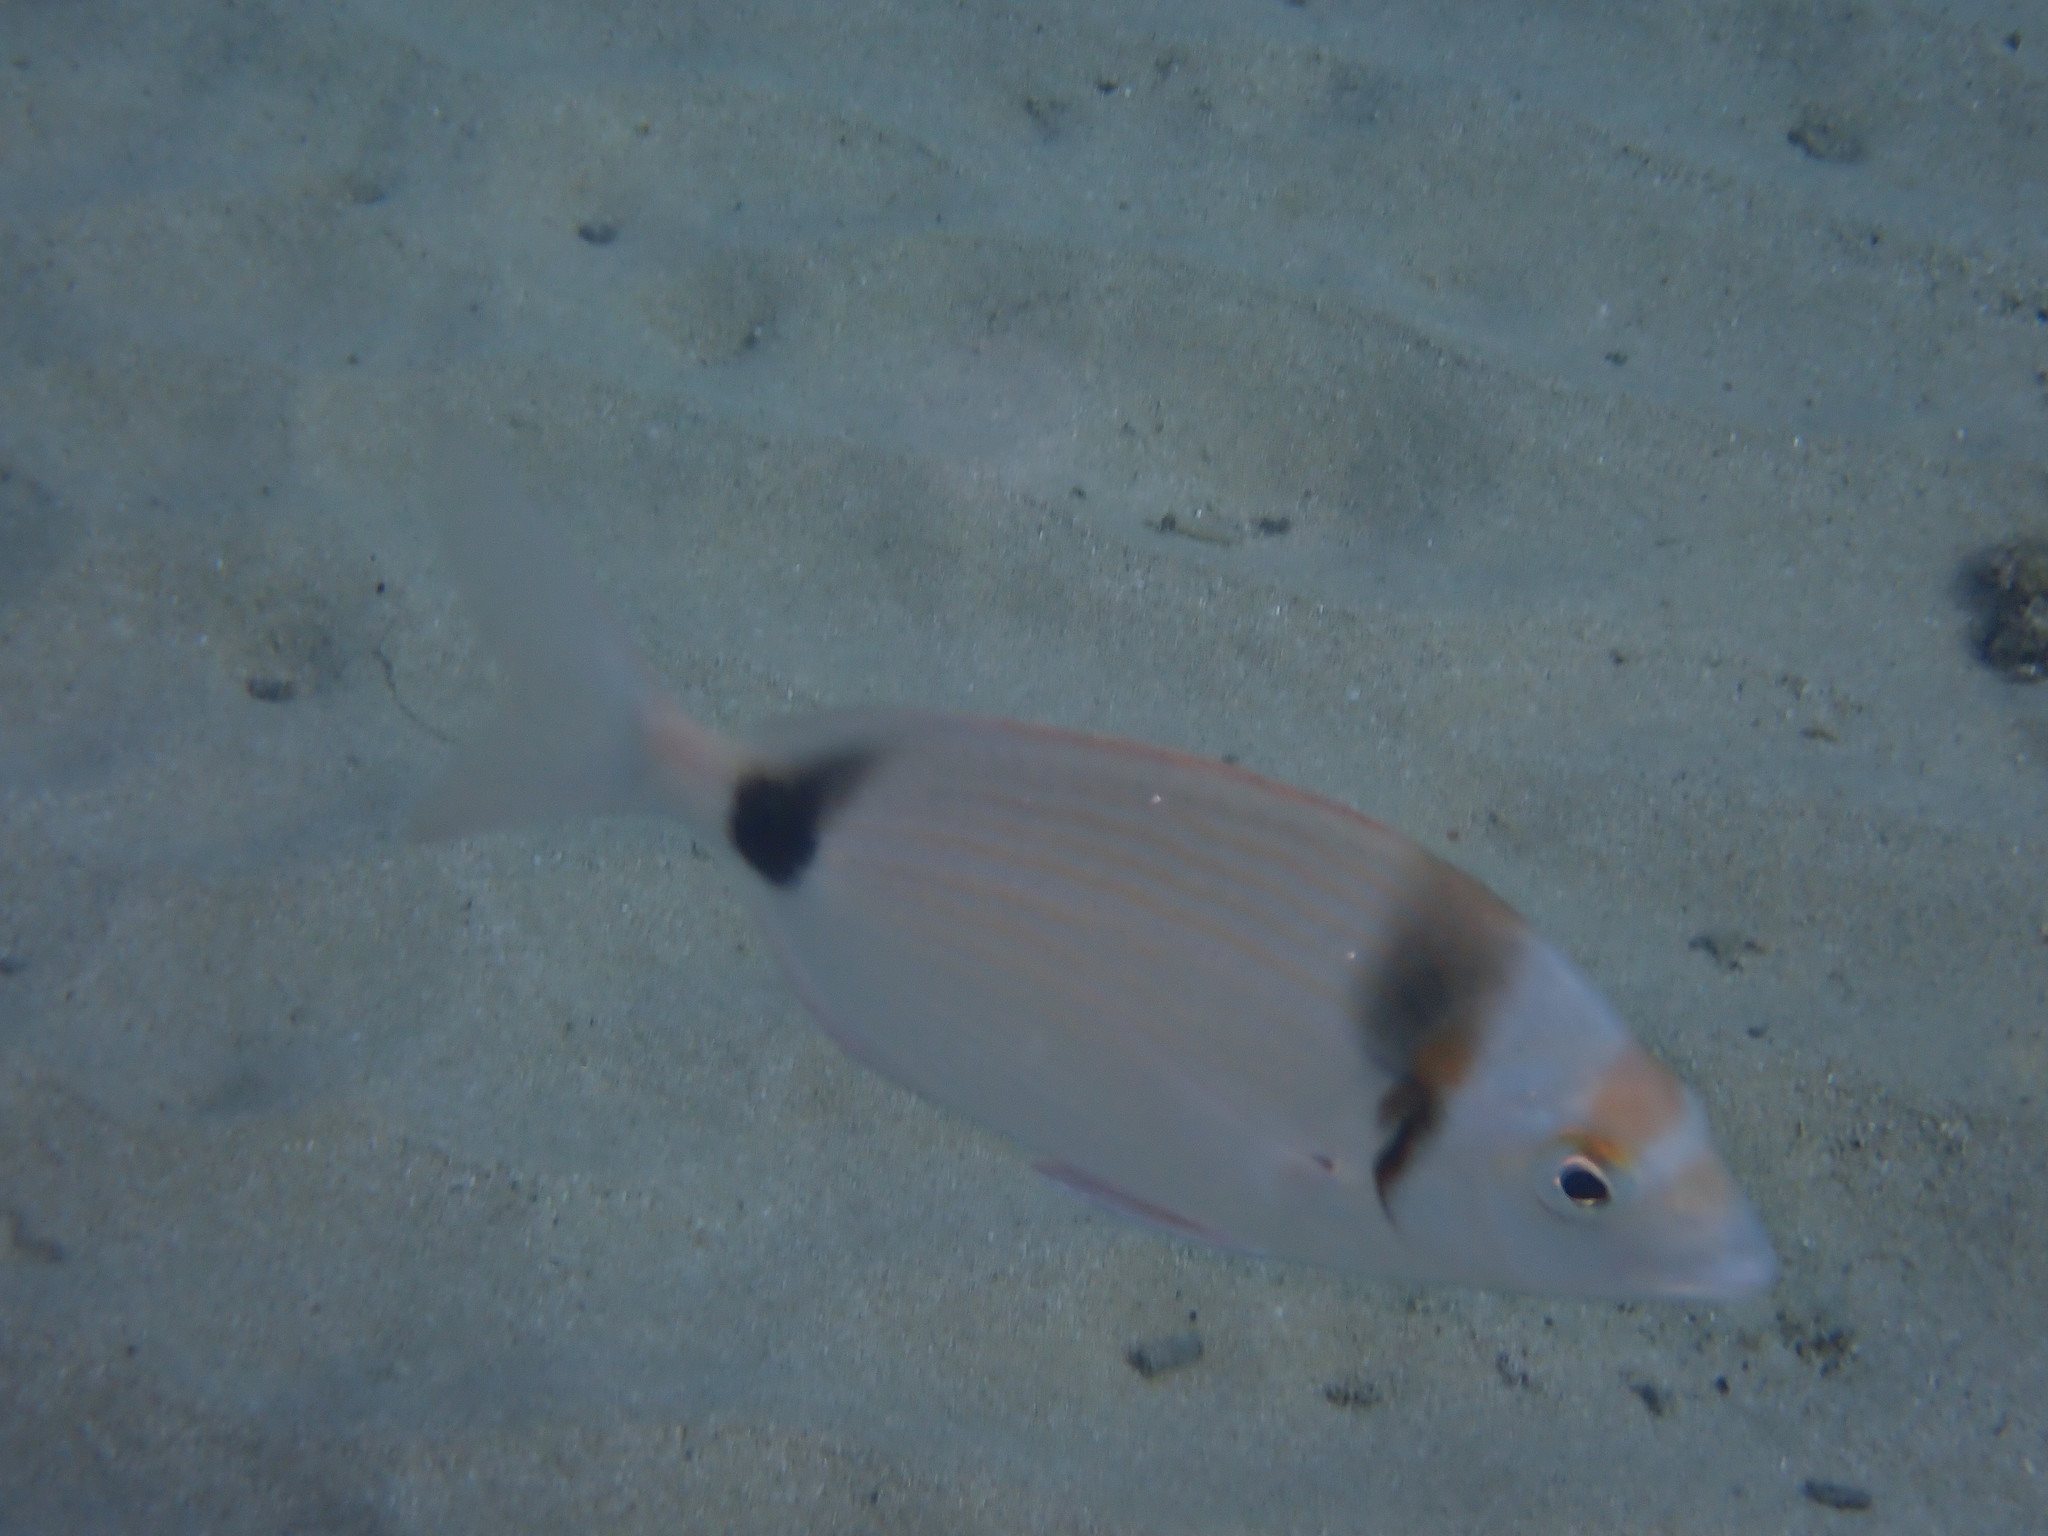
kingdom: Animalia
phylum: Chordata
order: Perciformes
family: Sparidae
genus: Diplodus
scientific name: Diplodus vulgaris
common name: Common two-banded seabream
